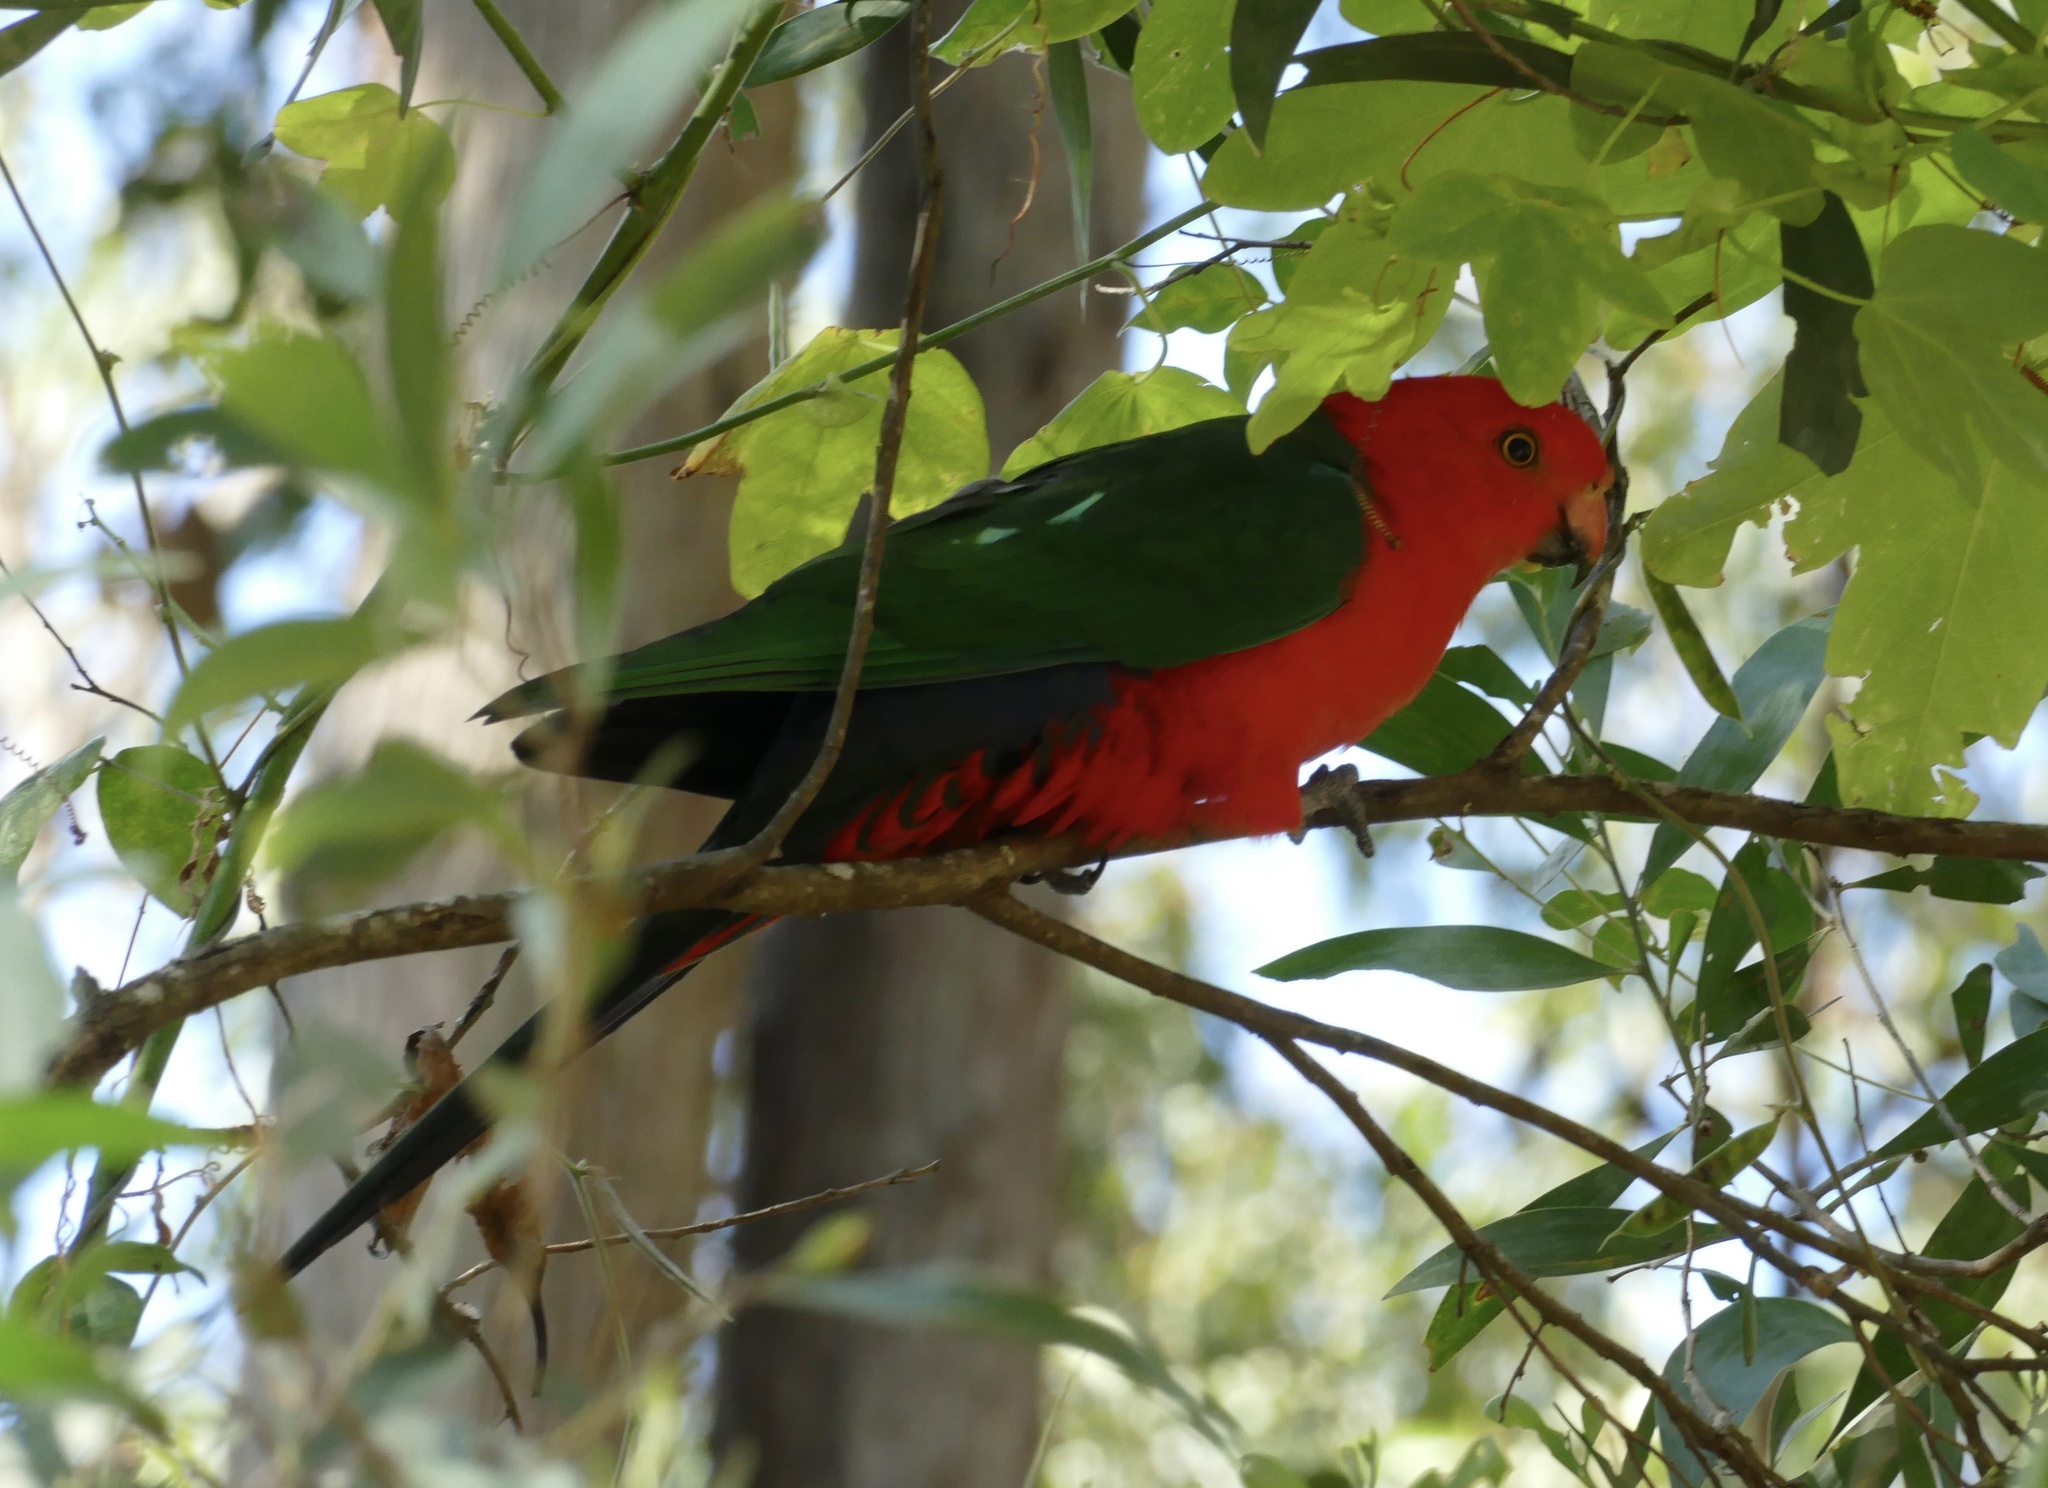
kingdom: Animalia
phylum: Chordata
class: Aves
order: Psittaciformes
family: Psittacidae
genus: Alisterus
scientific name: Alisterus scapularis
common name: Australian king parrot
